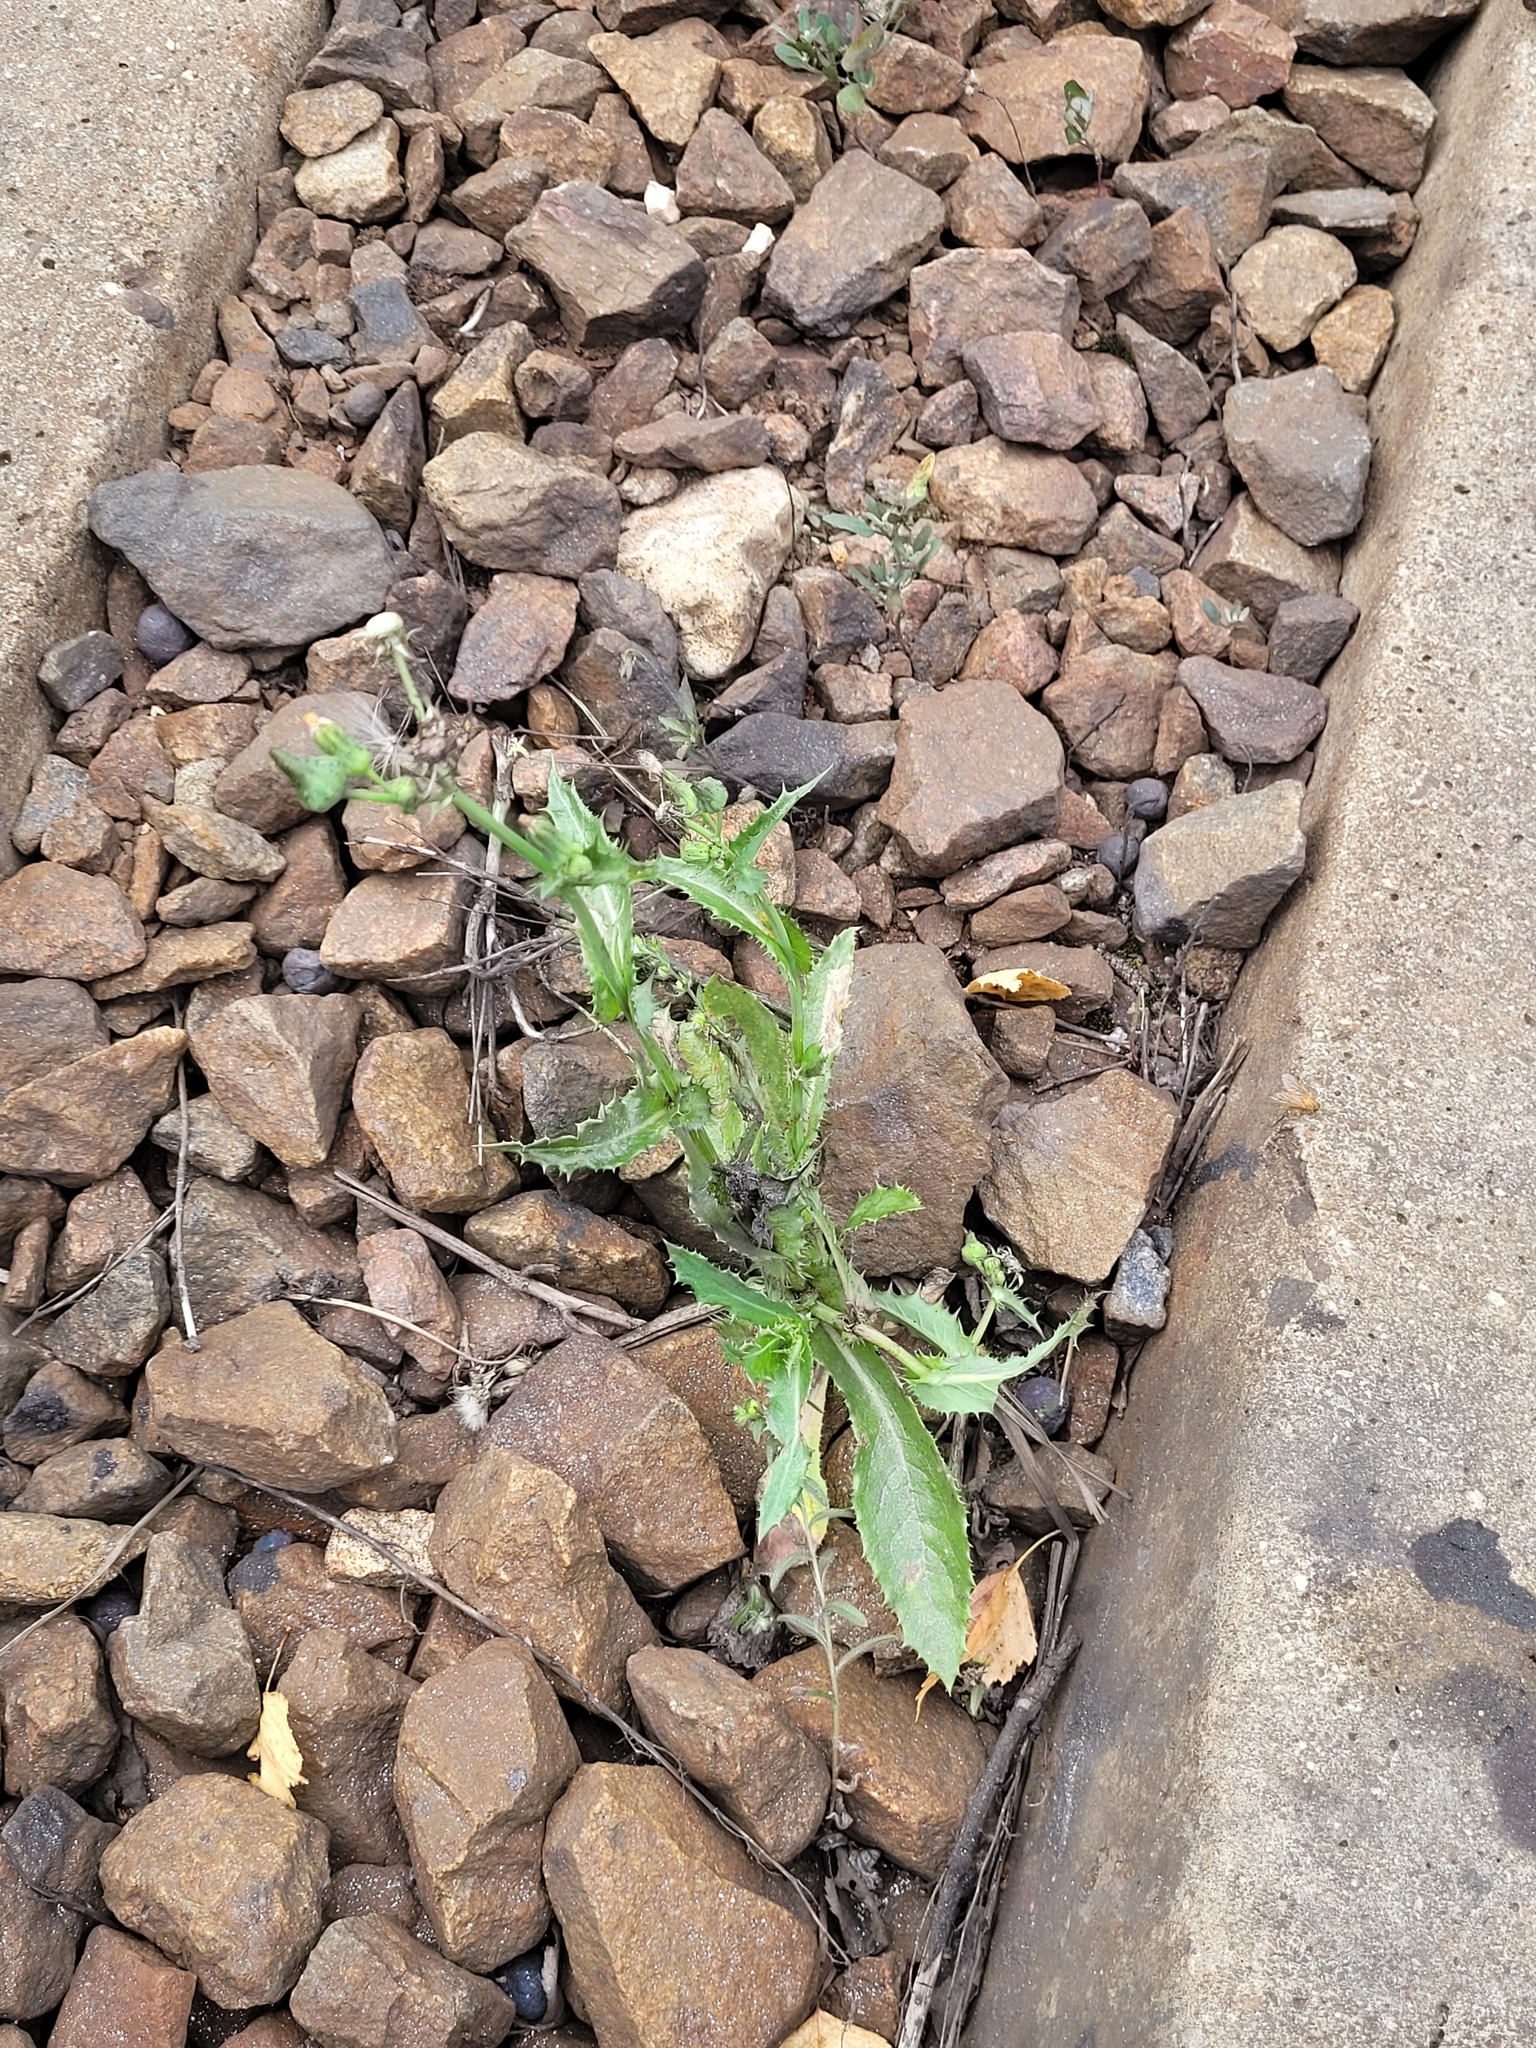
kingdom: Plantae
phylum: Tracheophyta
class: Magnoliopsida
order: Asterales
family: Asteraceae
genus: Sonchus
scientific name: Sonchus asper
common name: Prickly sow-thistle
